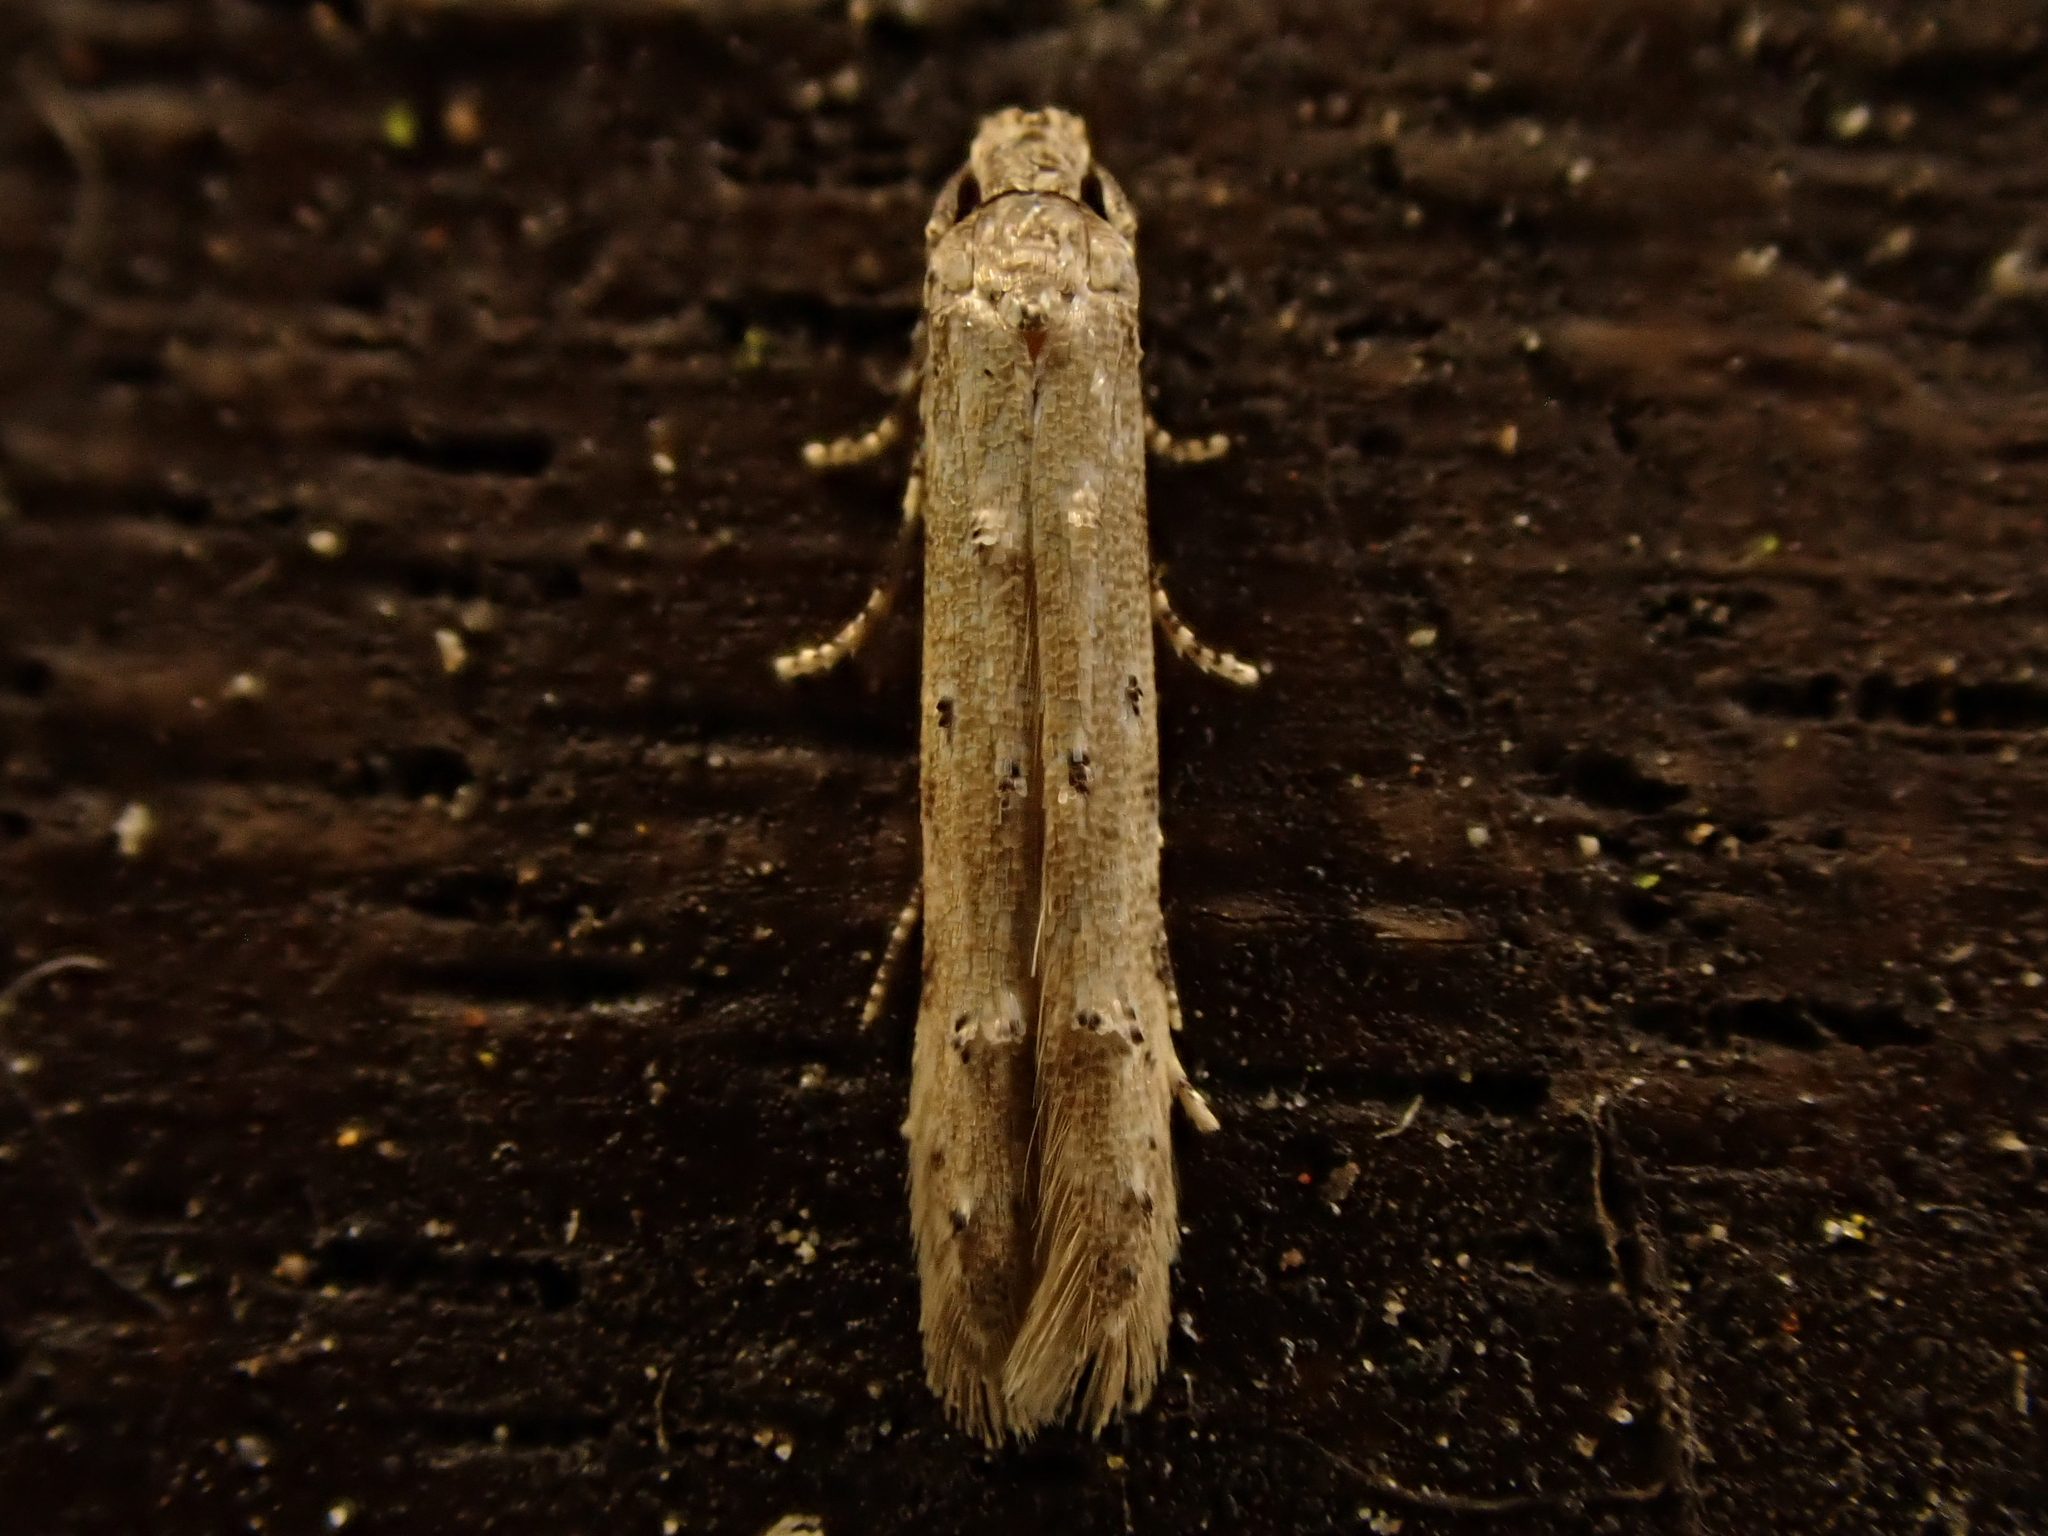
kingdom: Animalia
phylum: Arthropoda
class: Insecta
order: Lepidoptera
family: Elachistidae
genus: Microcolona
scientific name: Microcolona limodes
